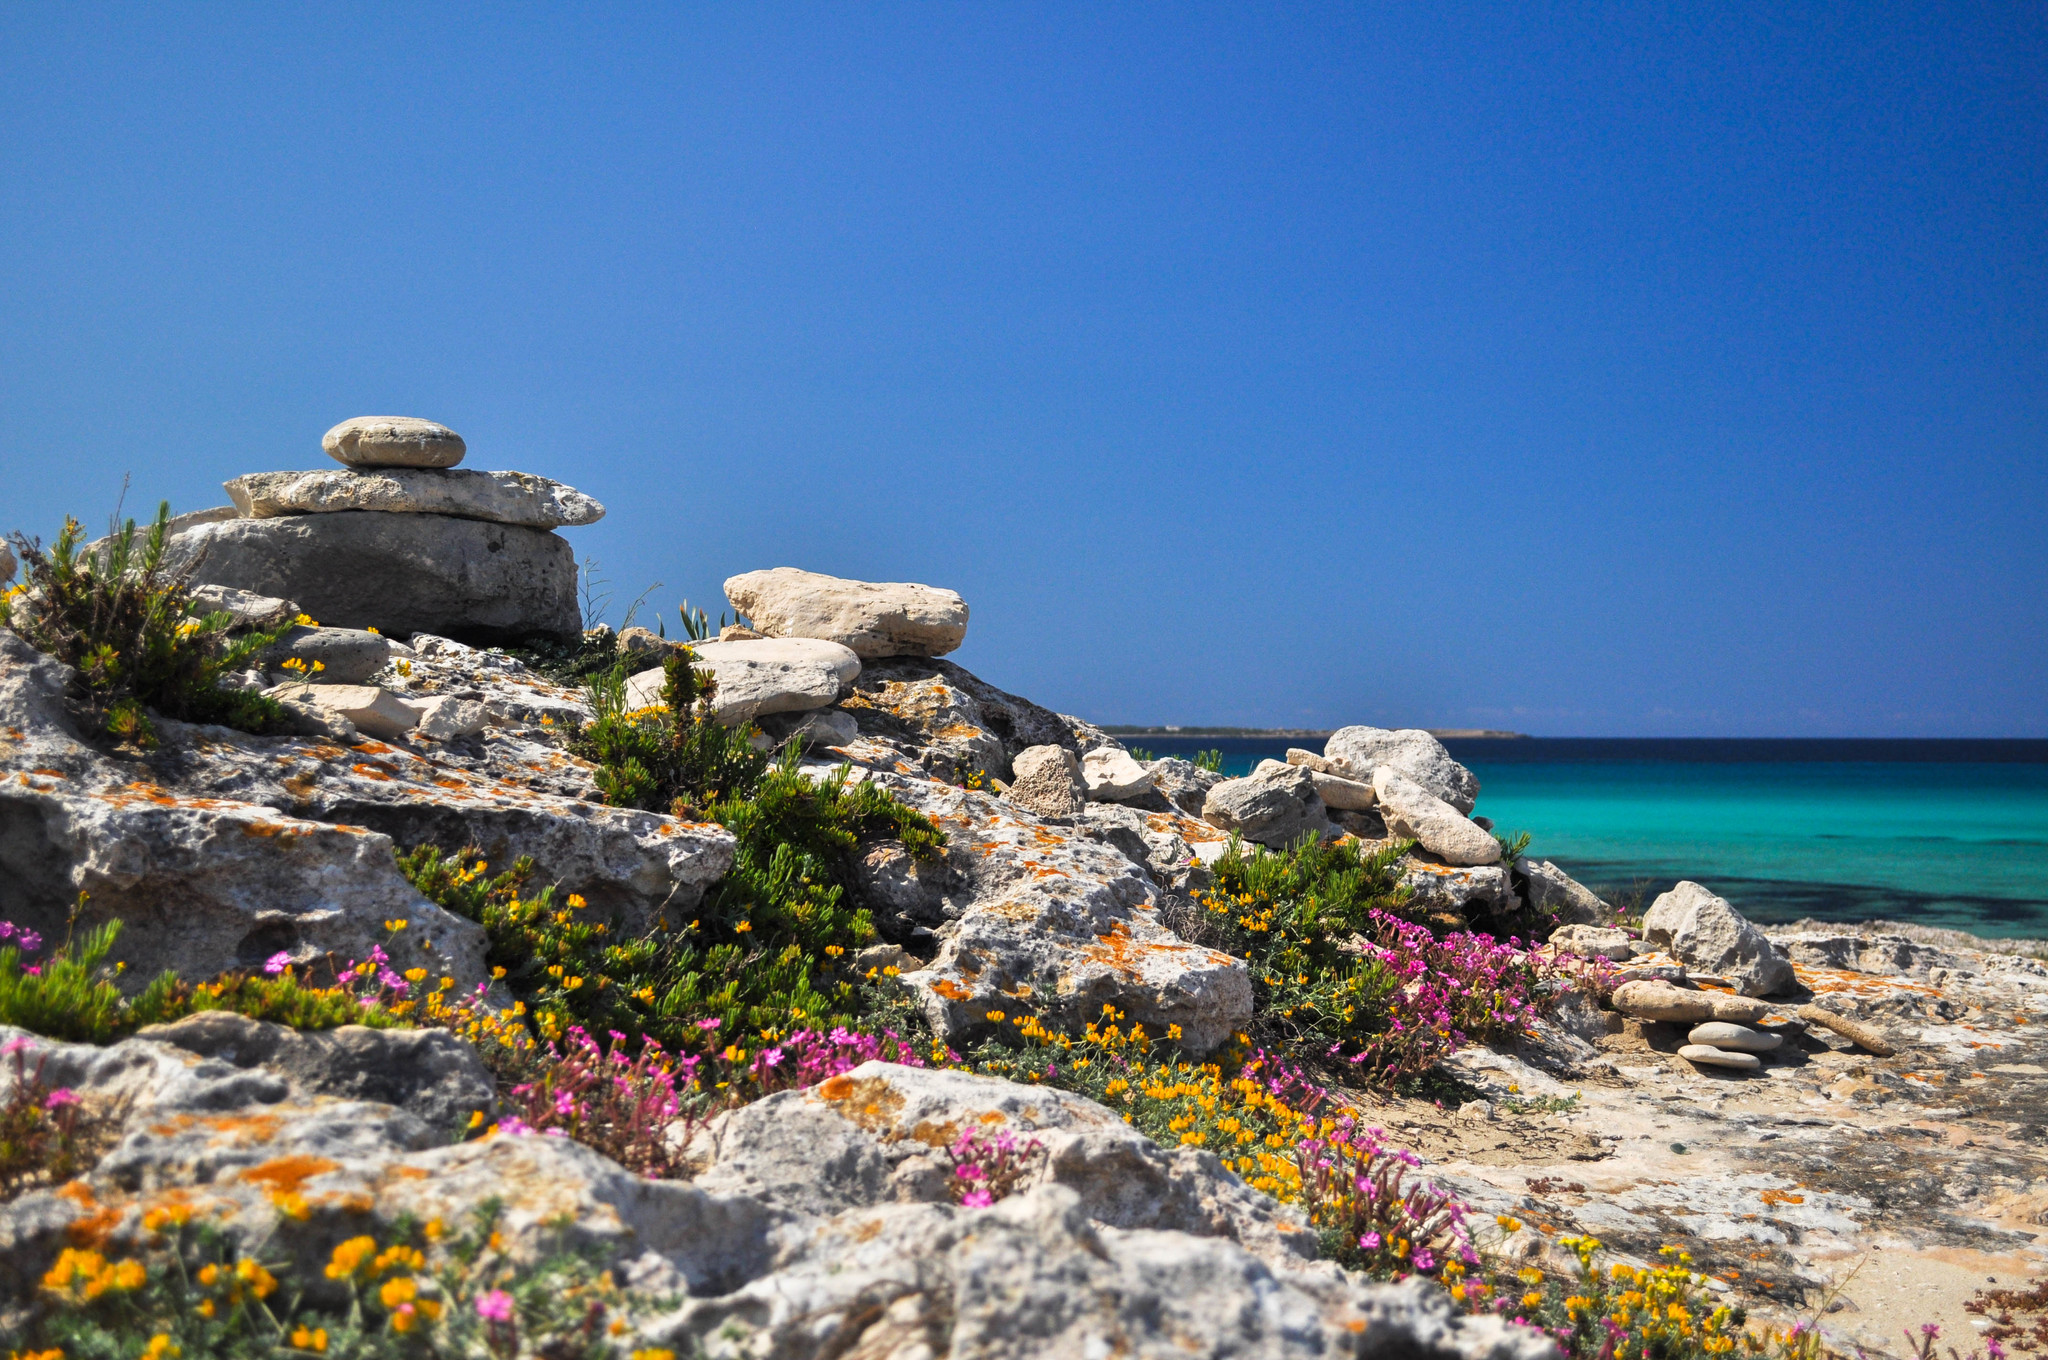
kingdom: Plantae
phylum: Tracheophyta
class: Magnoliopsida
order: Apiales
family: Apiaceae
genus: Crithmum
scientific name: Crithmum maritimum
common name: Rock samphire
